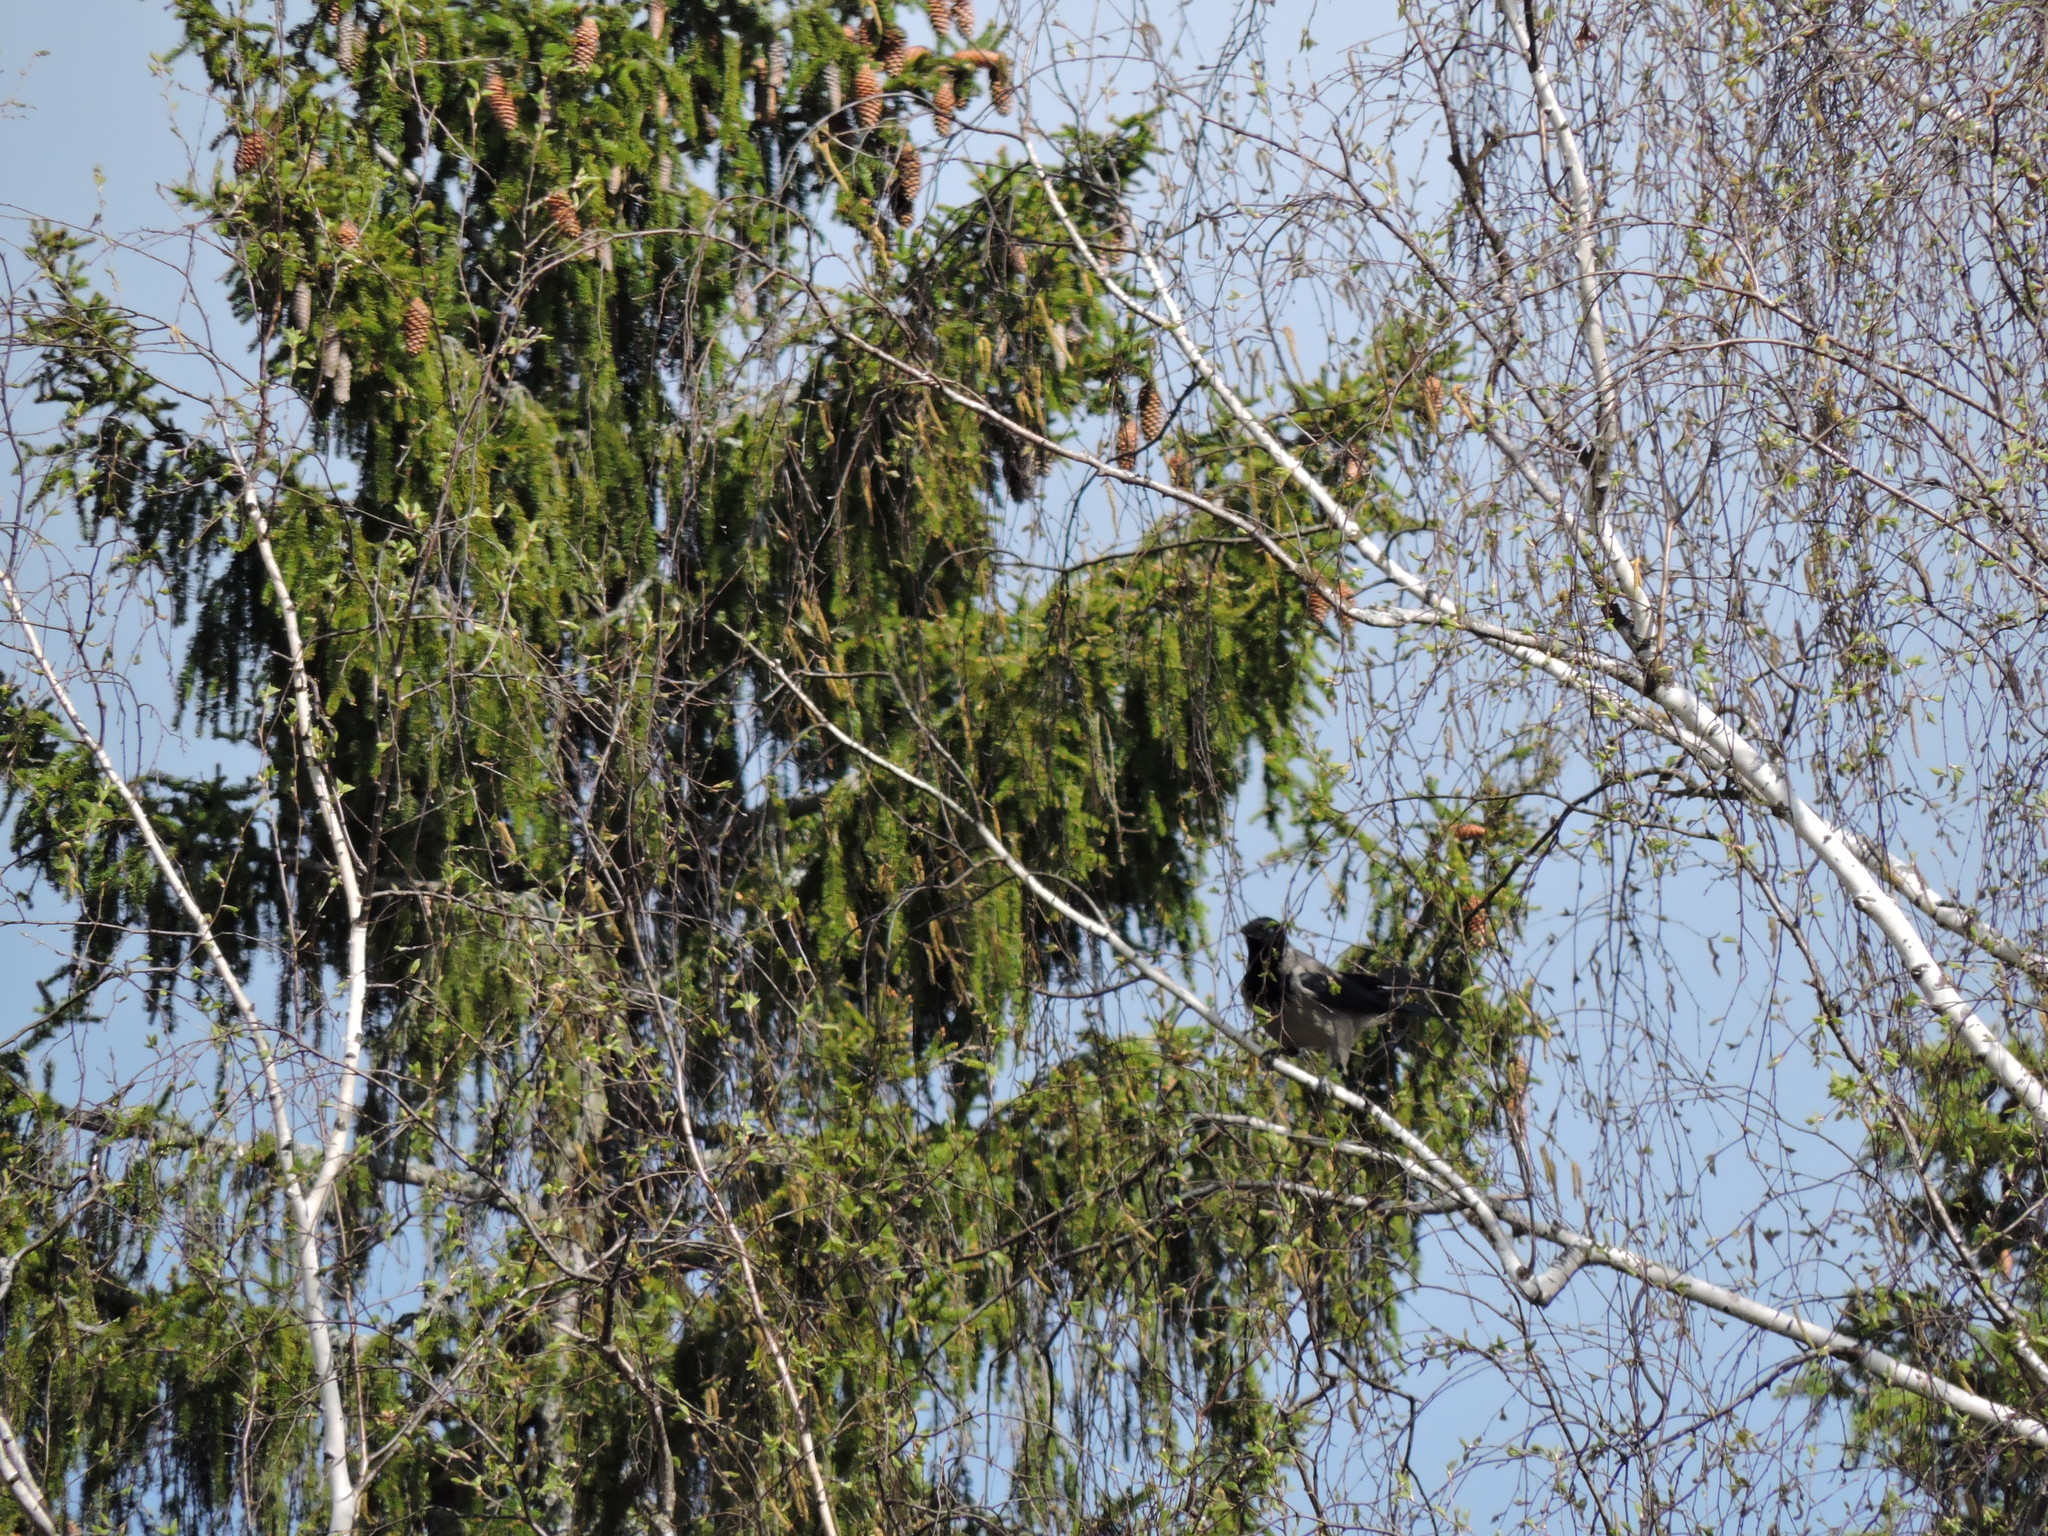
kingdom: Animalia
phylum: Chordata
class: Aves
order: Passeriformes
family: Corvidae
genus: Corvus
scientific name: Corvus cornix
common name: Hooded crow
